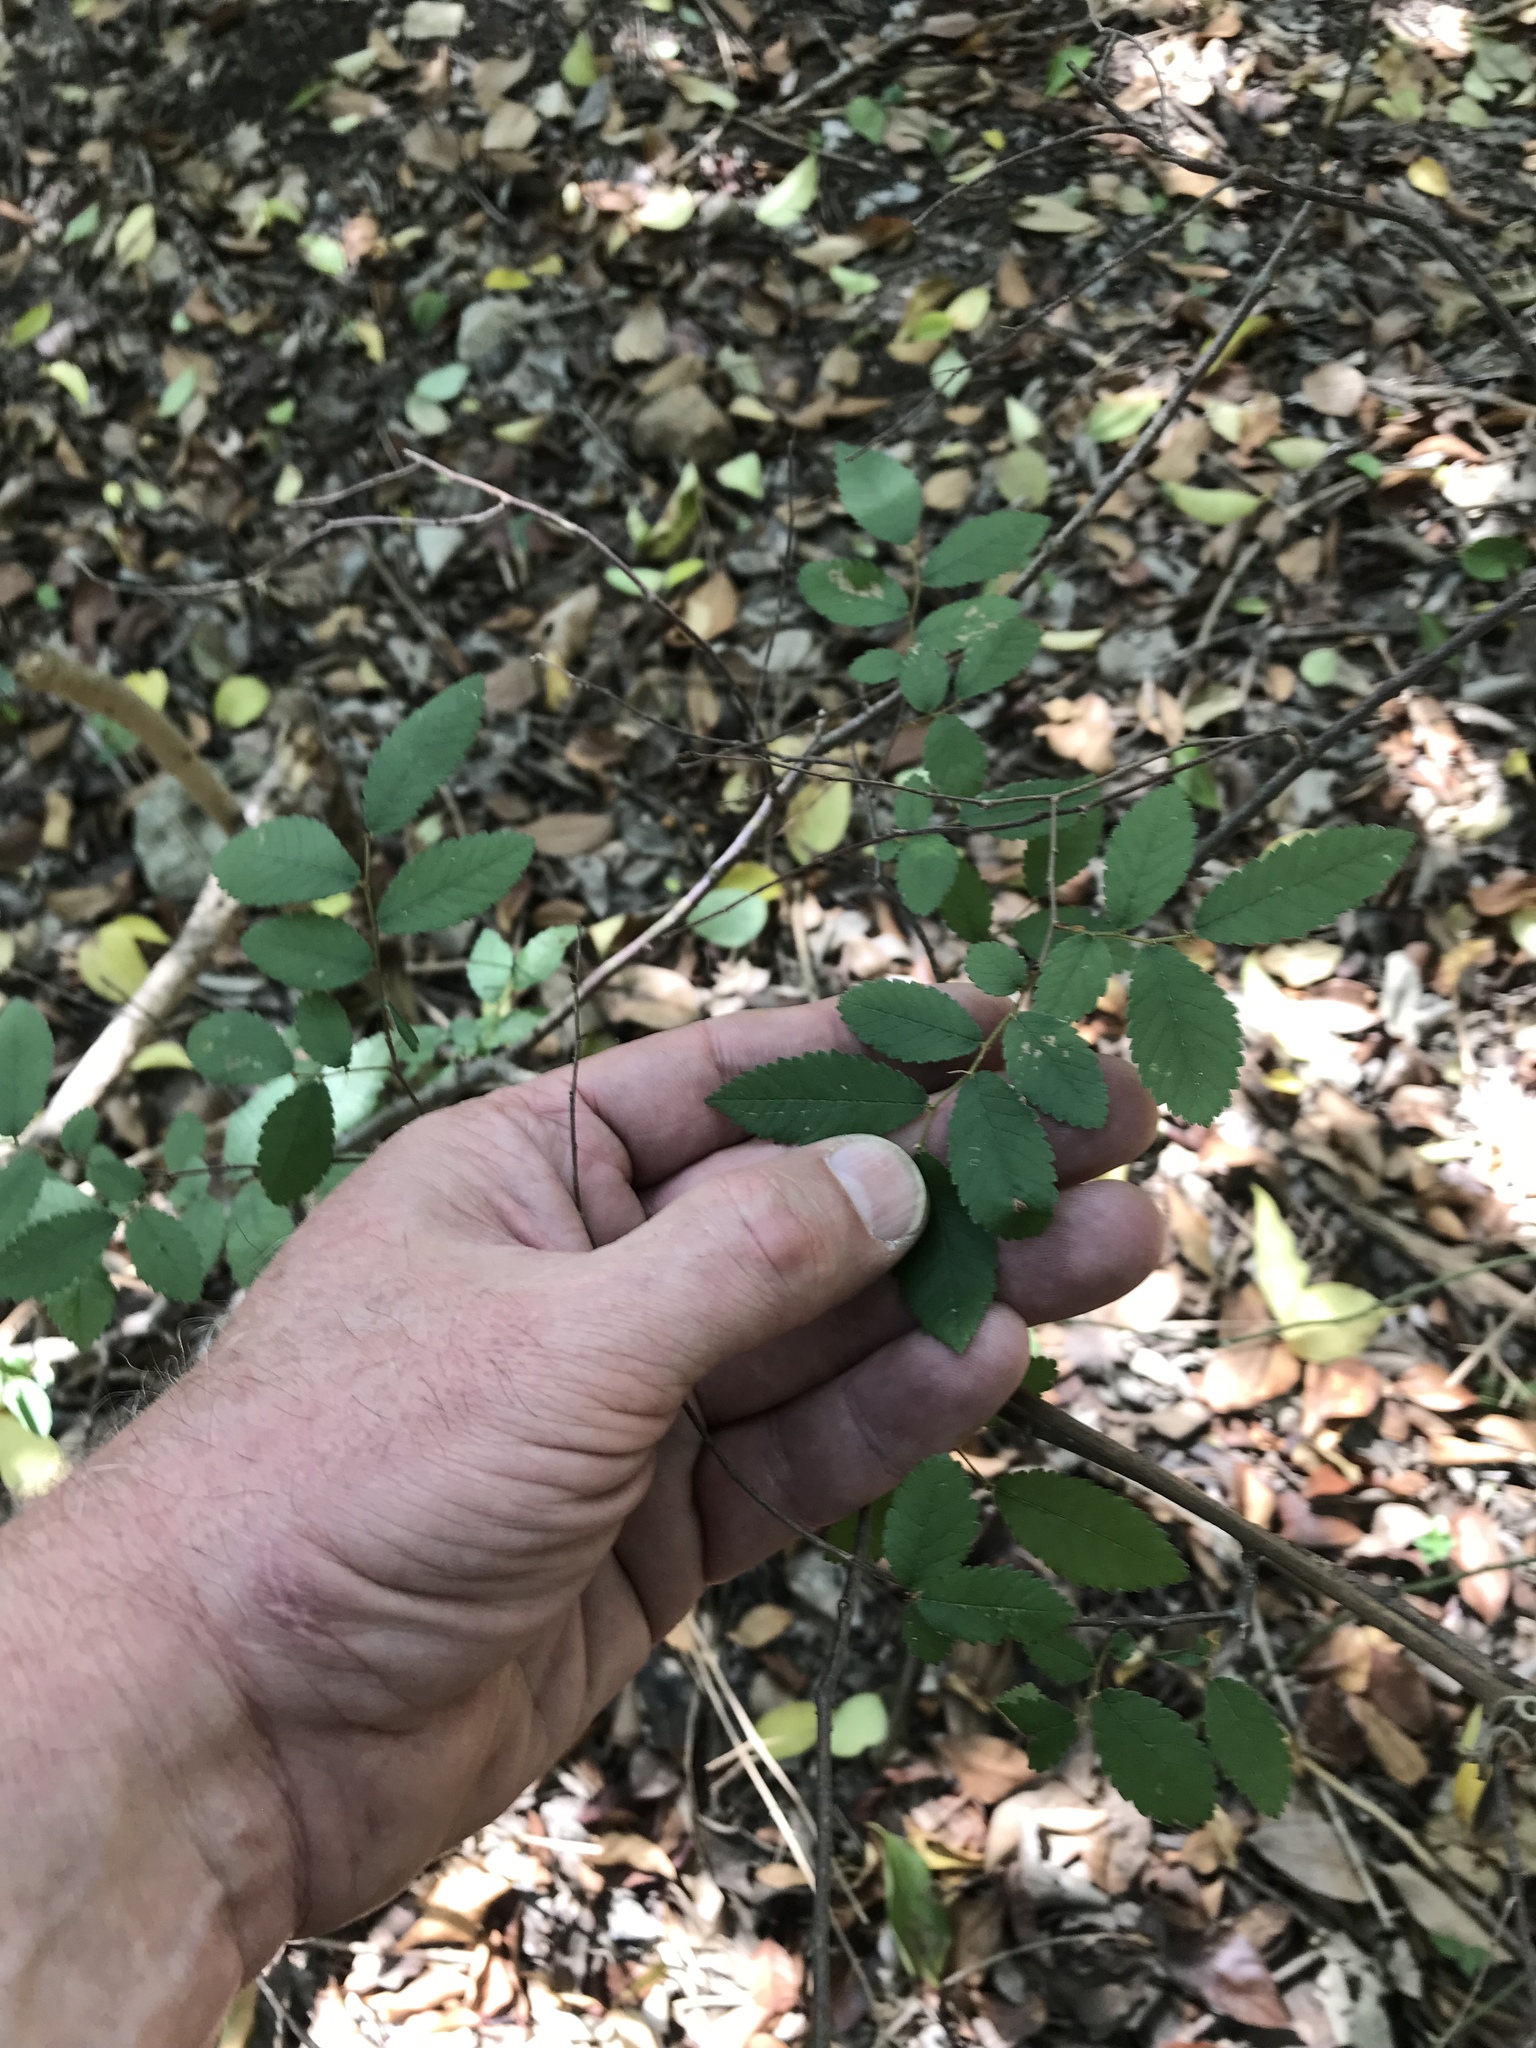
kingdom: Plantae
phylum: Tracheophyta
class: Magnoliopsida
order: Rosales
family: Ulmaceae
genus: Ulmus
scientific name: Ulmus crassifolia
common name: Basket elm
